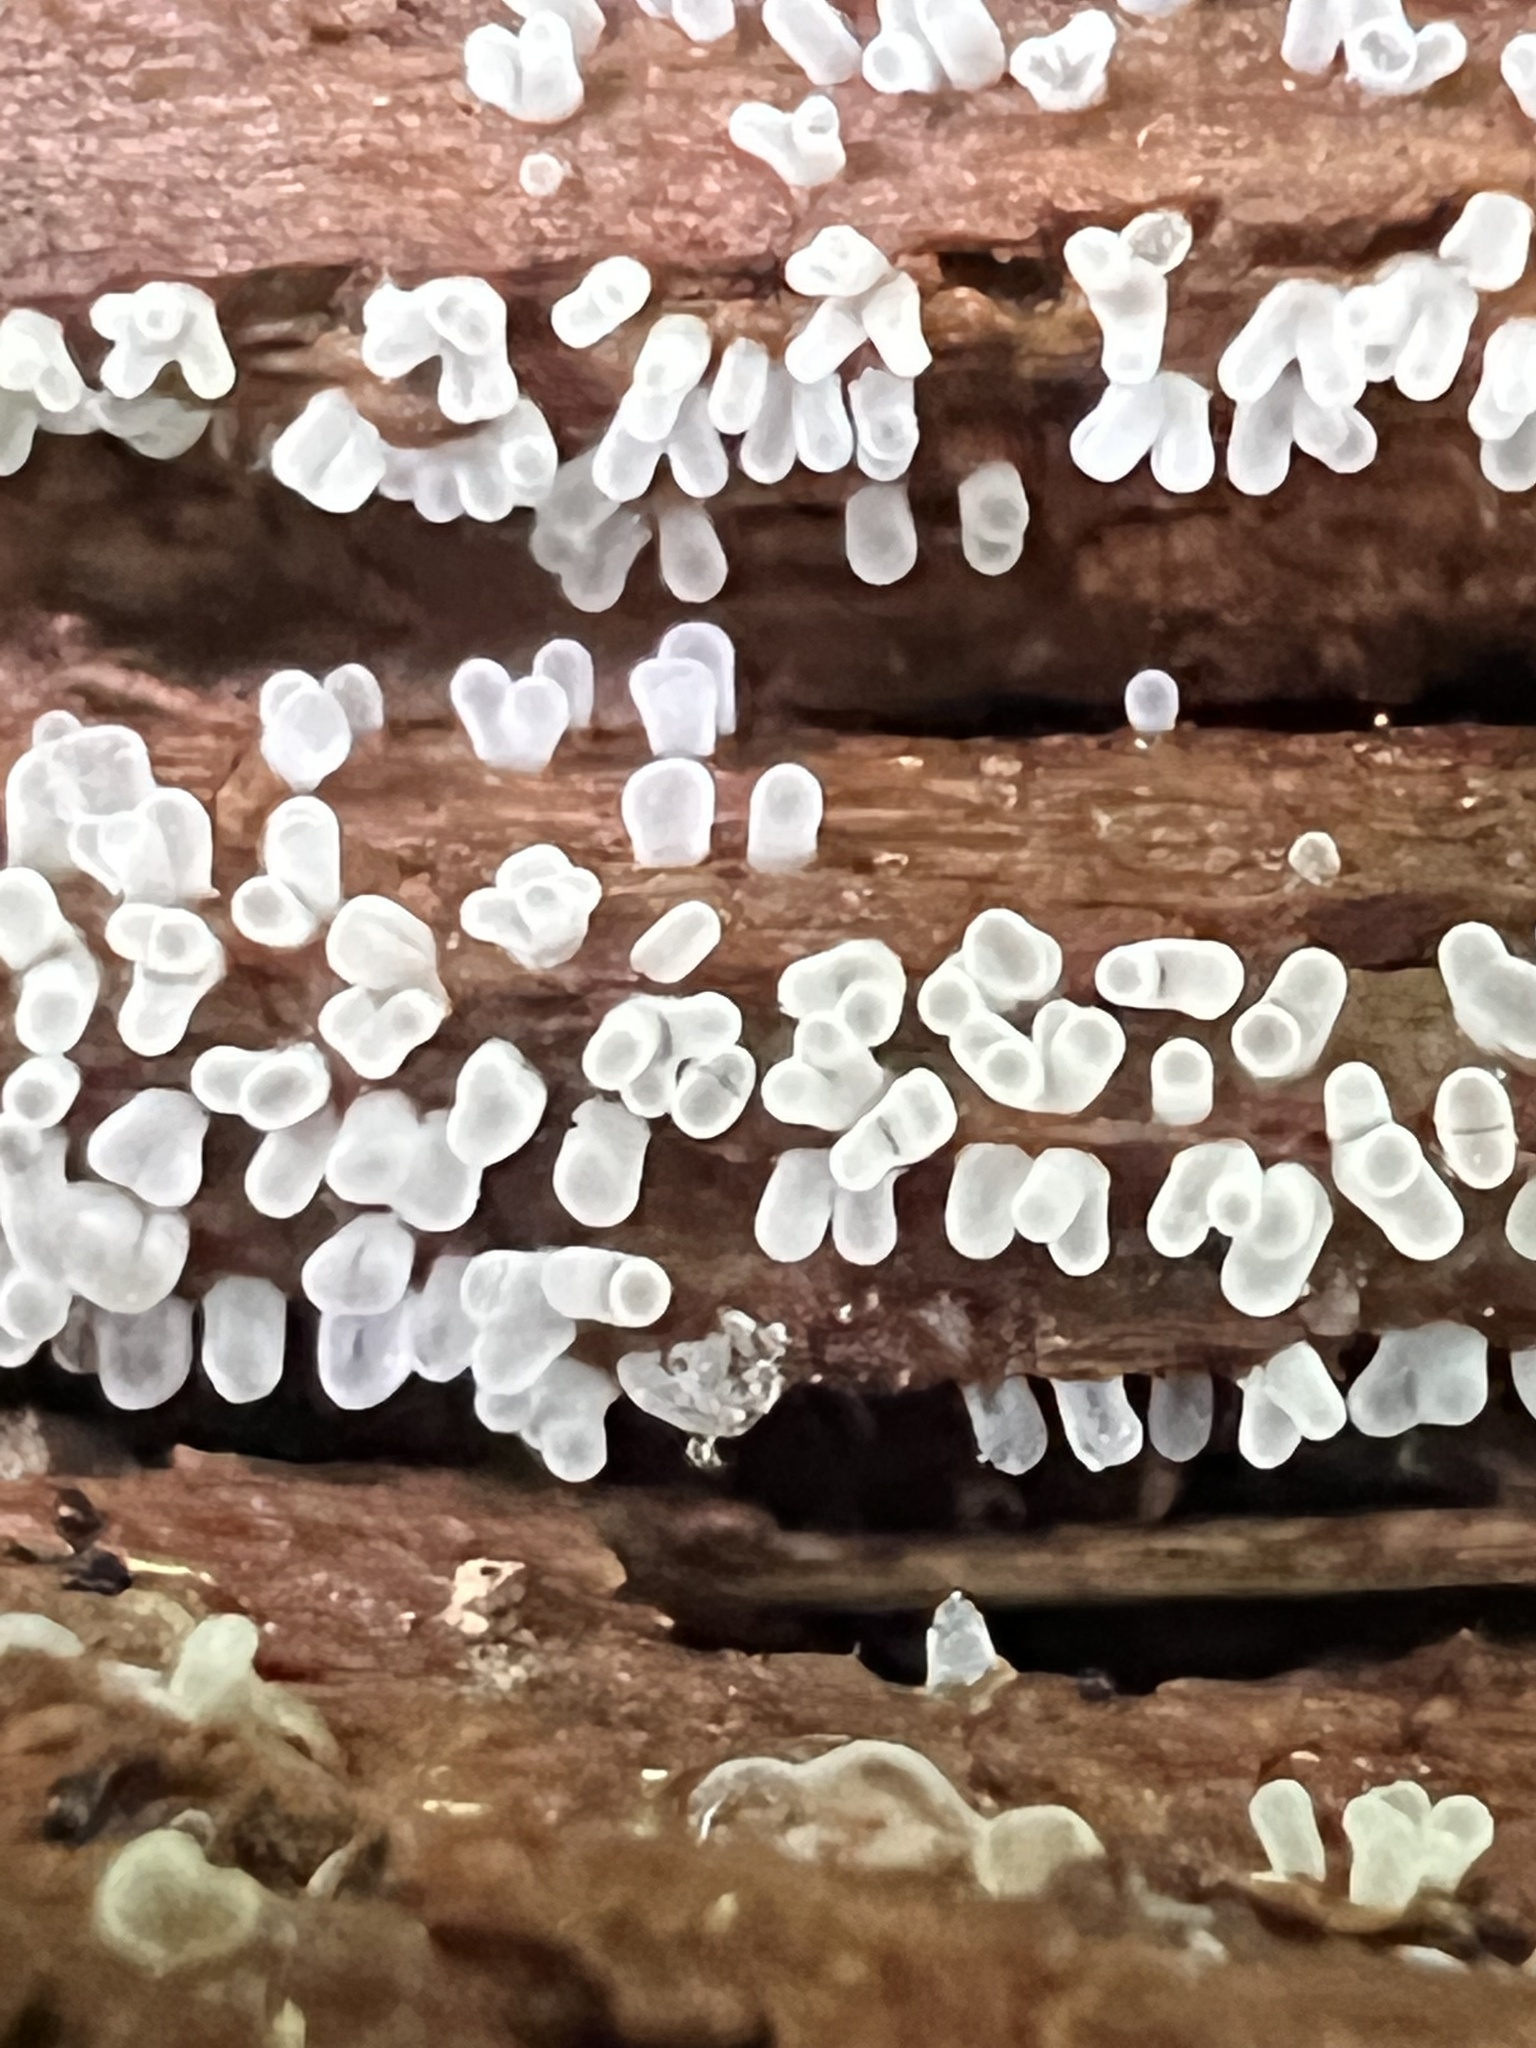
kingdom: Protozoa
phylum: Mycetozoa
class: Protosteliomycetes
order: Ceratiomyxales
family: Ceratiomyxaceae
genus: Ceratiomyxa
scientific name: Ceratiomyxa fruticulosa
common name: Honeycomb coral slime mold
